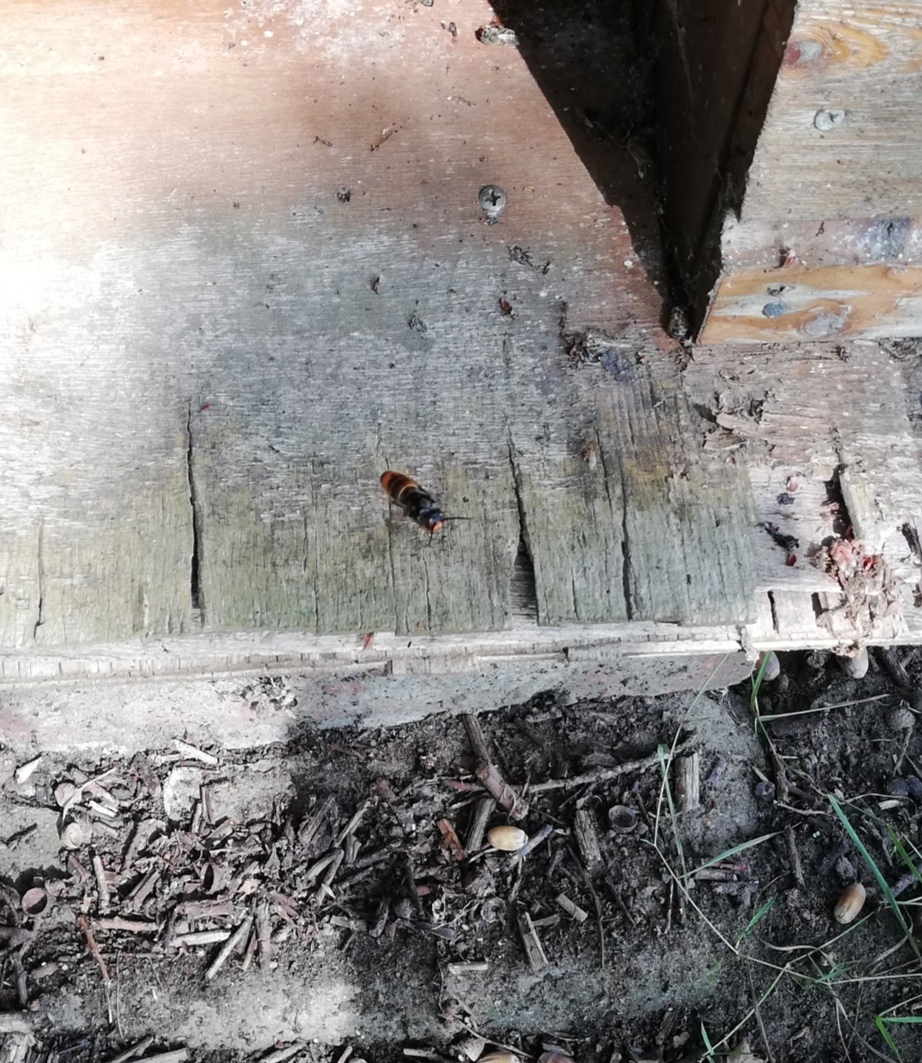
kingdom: Animalia
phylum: Arthropoda
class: Insecta
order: Hymenoptera
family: Vespidae
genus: Vespa
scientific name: Vespa velutina
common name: Asian hornet
